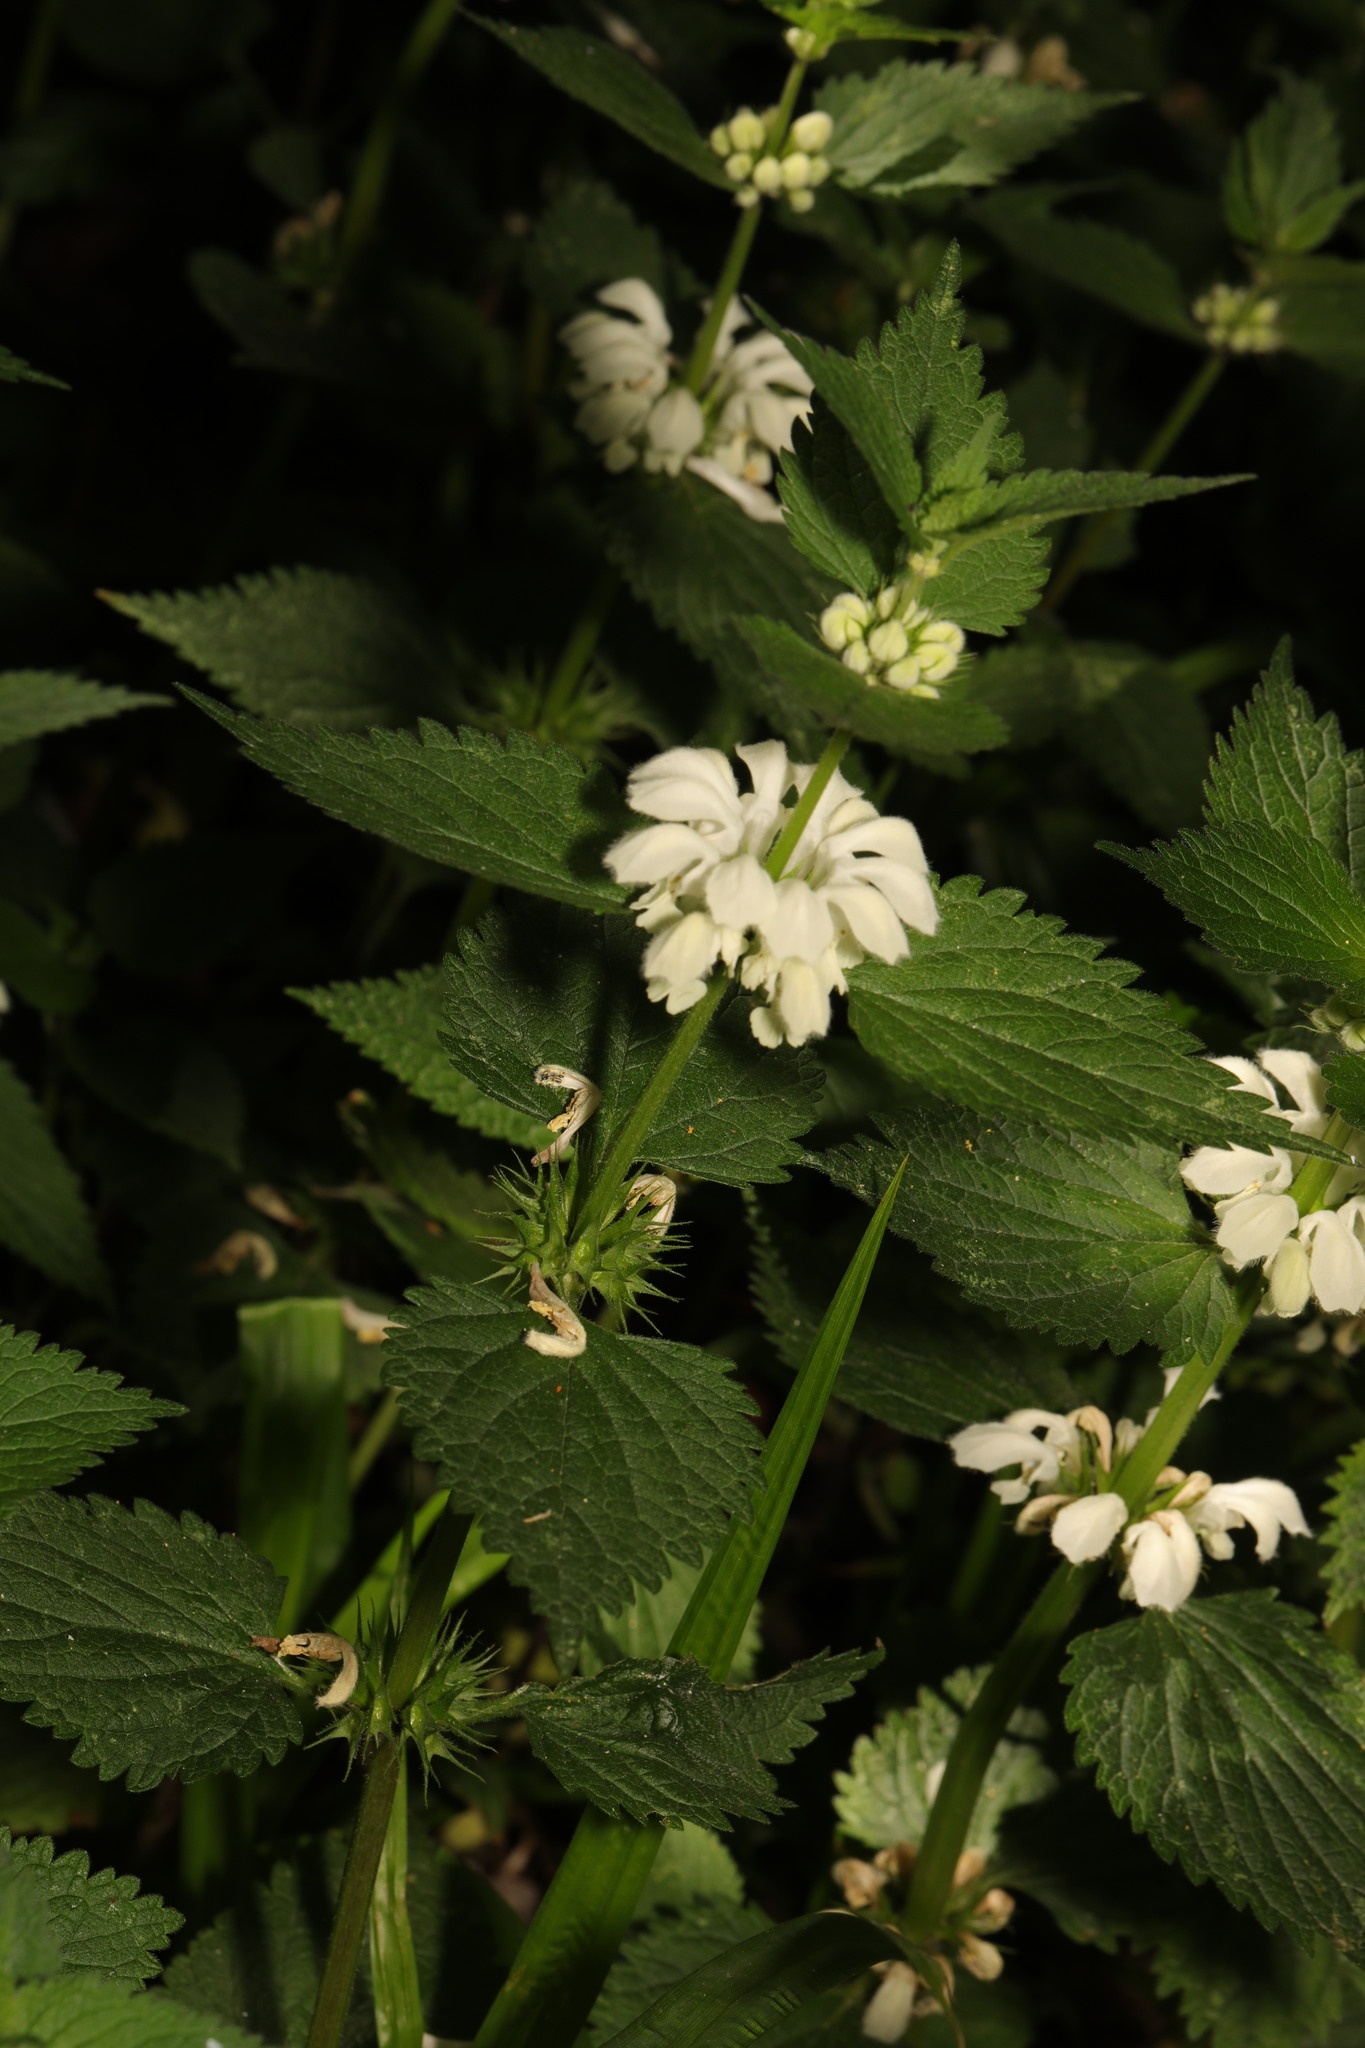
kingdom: Plantae
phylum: Tracheophyta
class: Magnoliopsida
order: Lamiales
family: Lamiaceae
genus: Lamium
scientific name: Lamium album
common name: White dead-nettle
